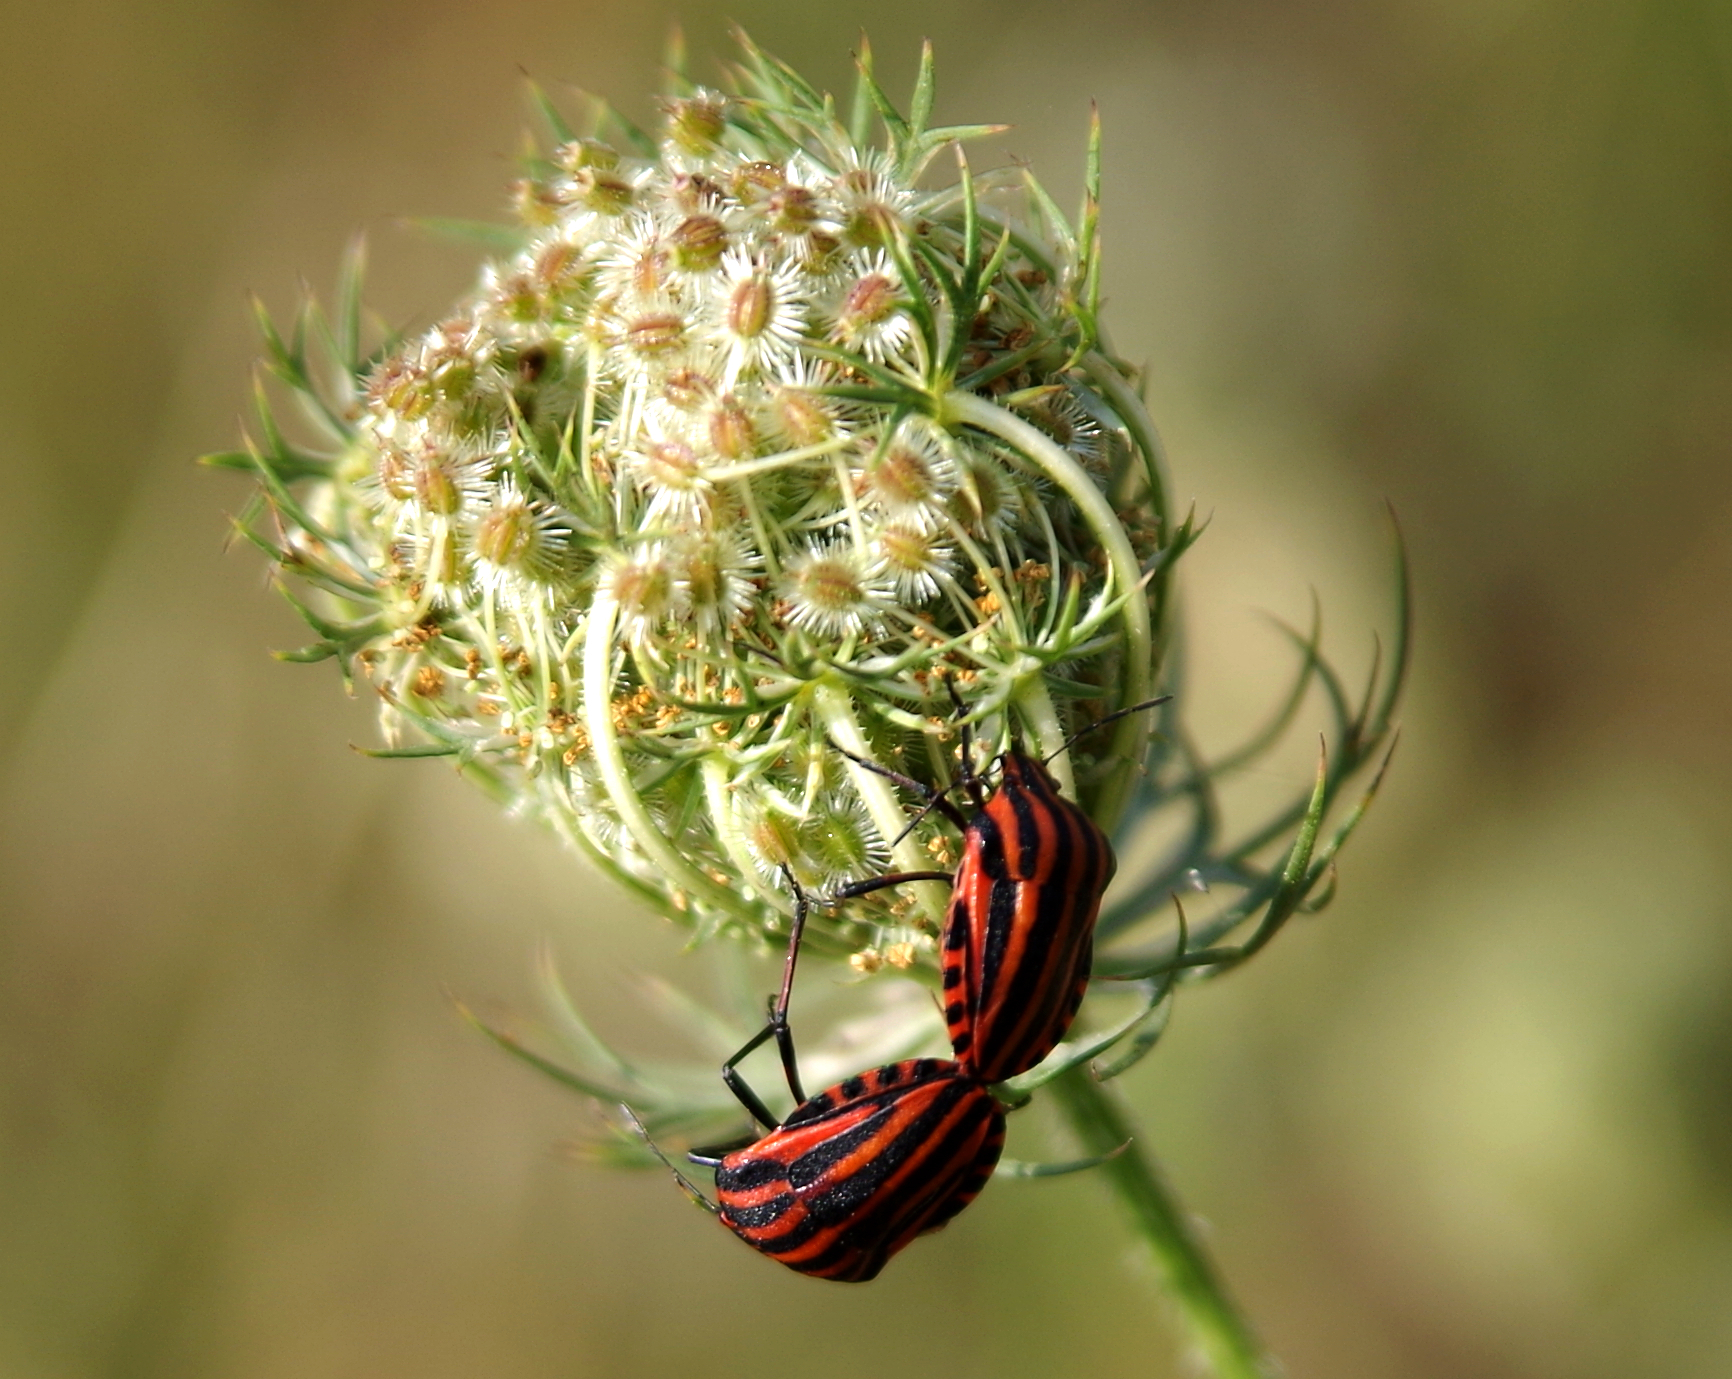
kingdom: Animalia
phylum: Arthropoda
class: Insecta
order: Hemiptera
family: Pentatomidae
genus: Graphosoma
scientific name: Graphosoma italicum
